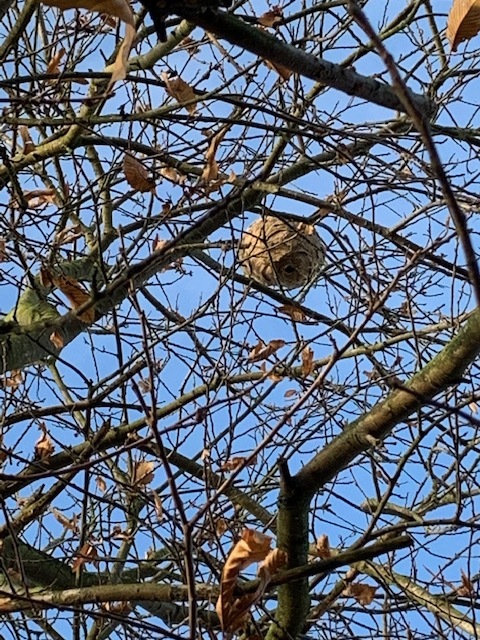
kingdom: Animalia
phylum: Arthropoda
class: Insecta
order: Hymenoptera
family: Vespidae
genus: Vespa
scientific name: Vespa velutina
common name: Asian hornet
